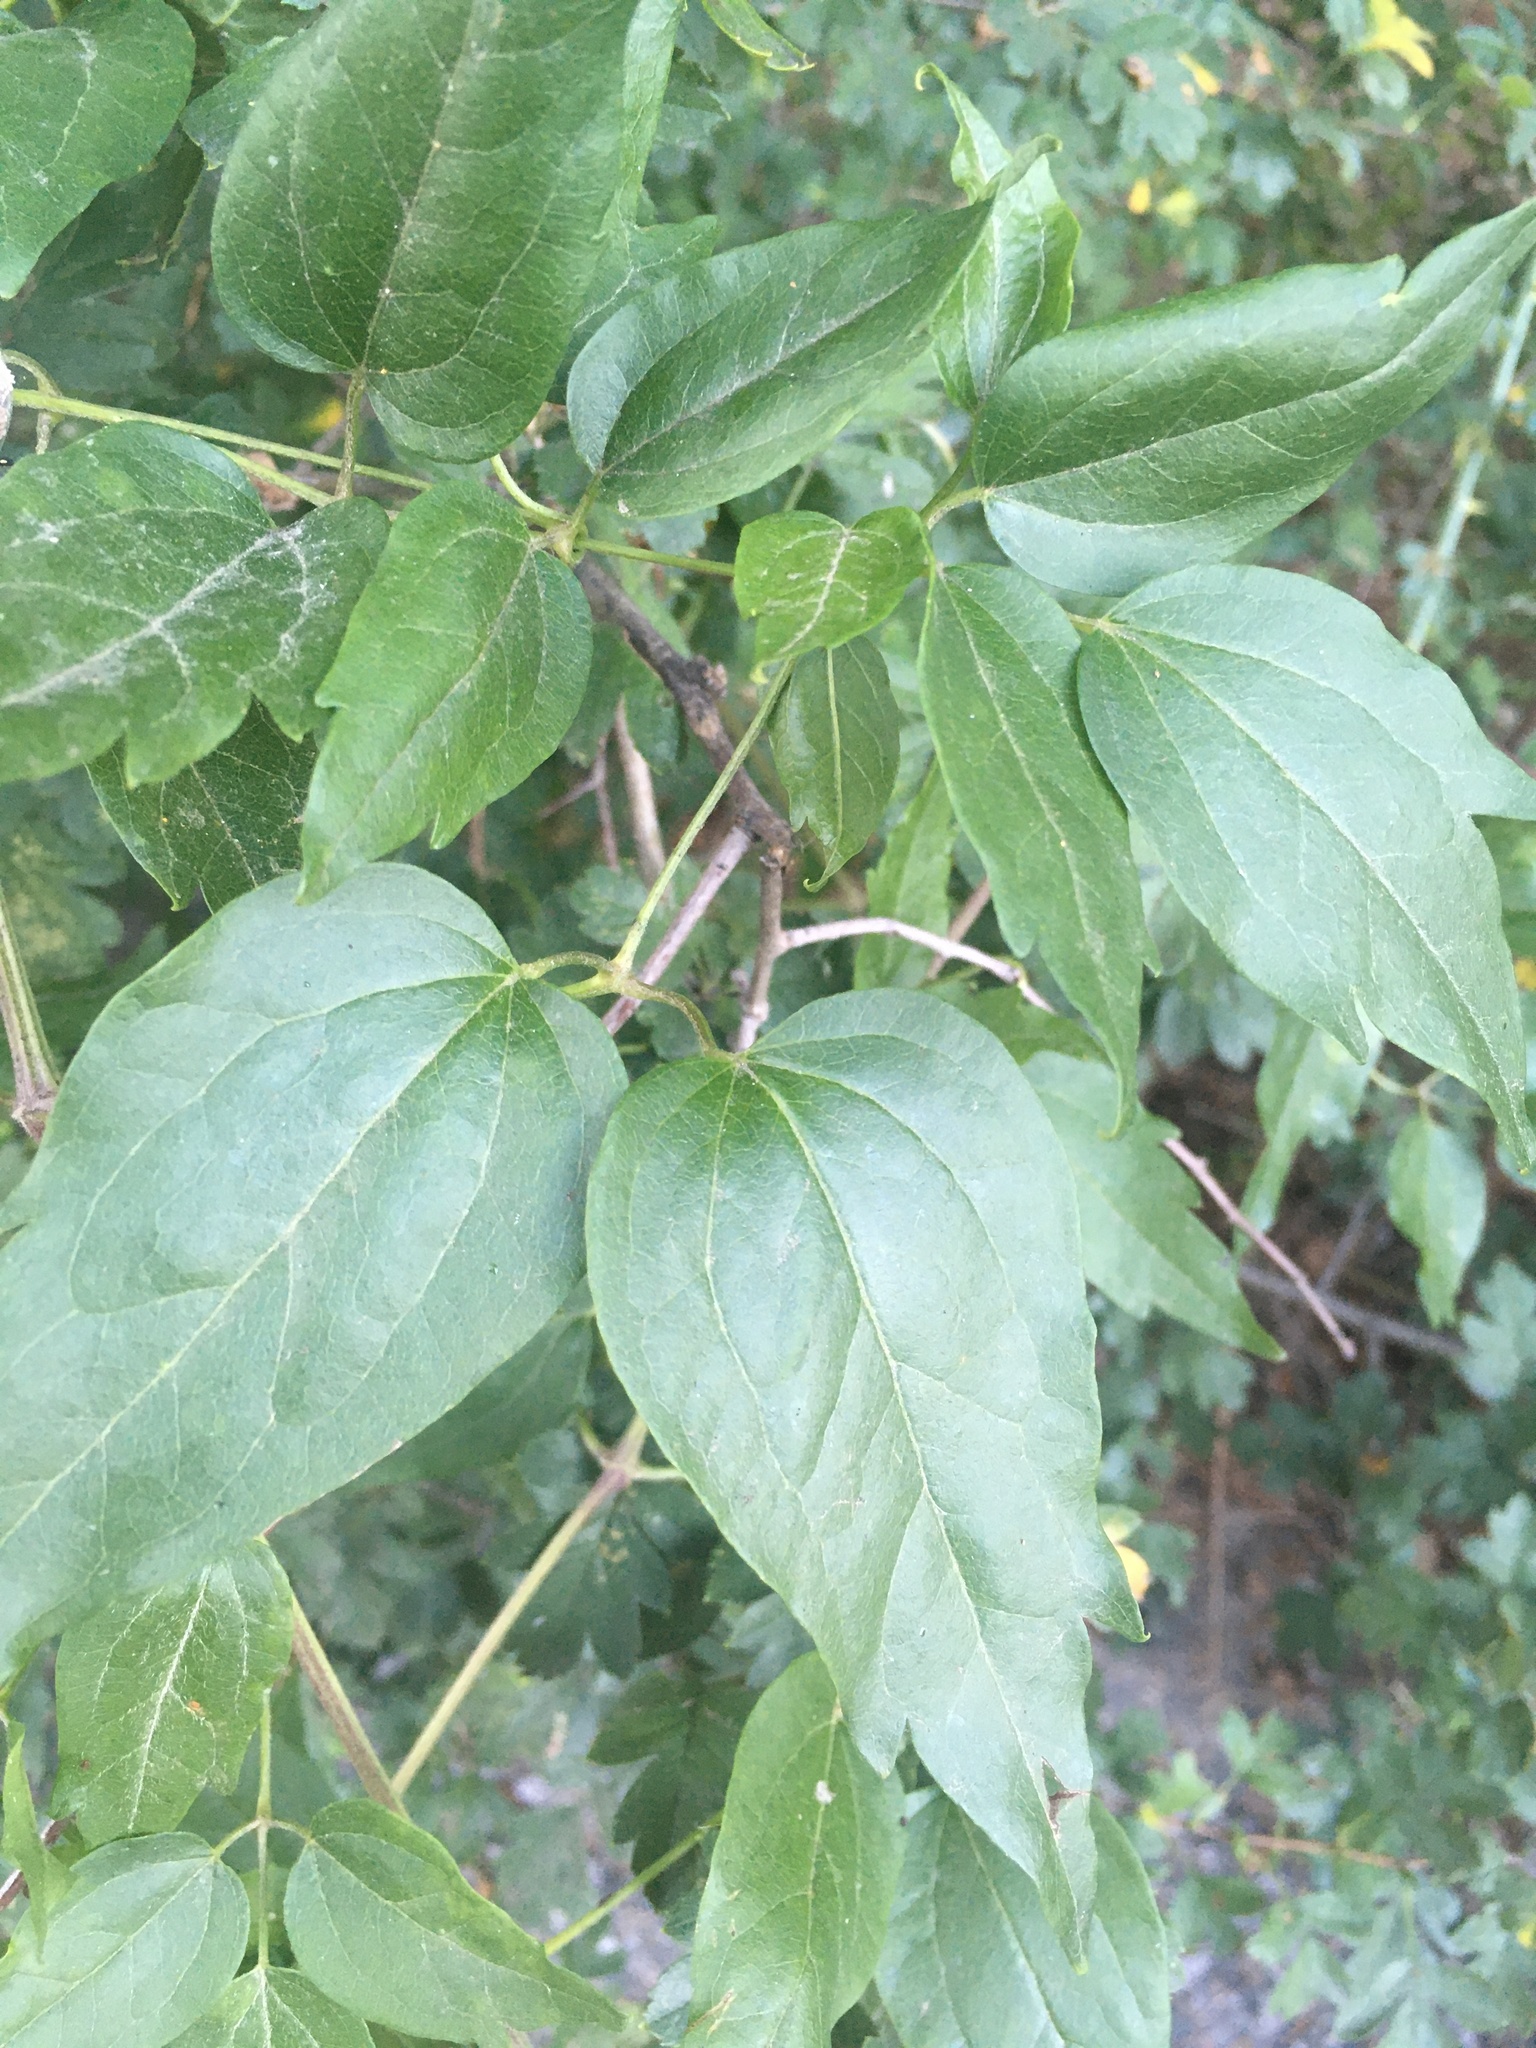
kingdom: Plantae
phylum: Tracheophyta
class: Magnoliopsida
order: Ranunculales
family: Ranunculaceae
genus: Clematis
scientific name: Clematis vitalba
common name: Evergreen clematis
